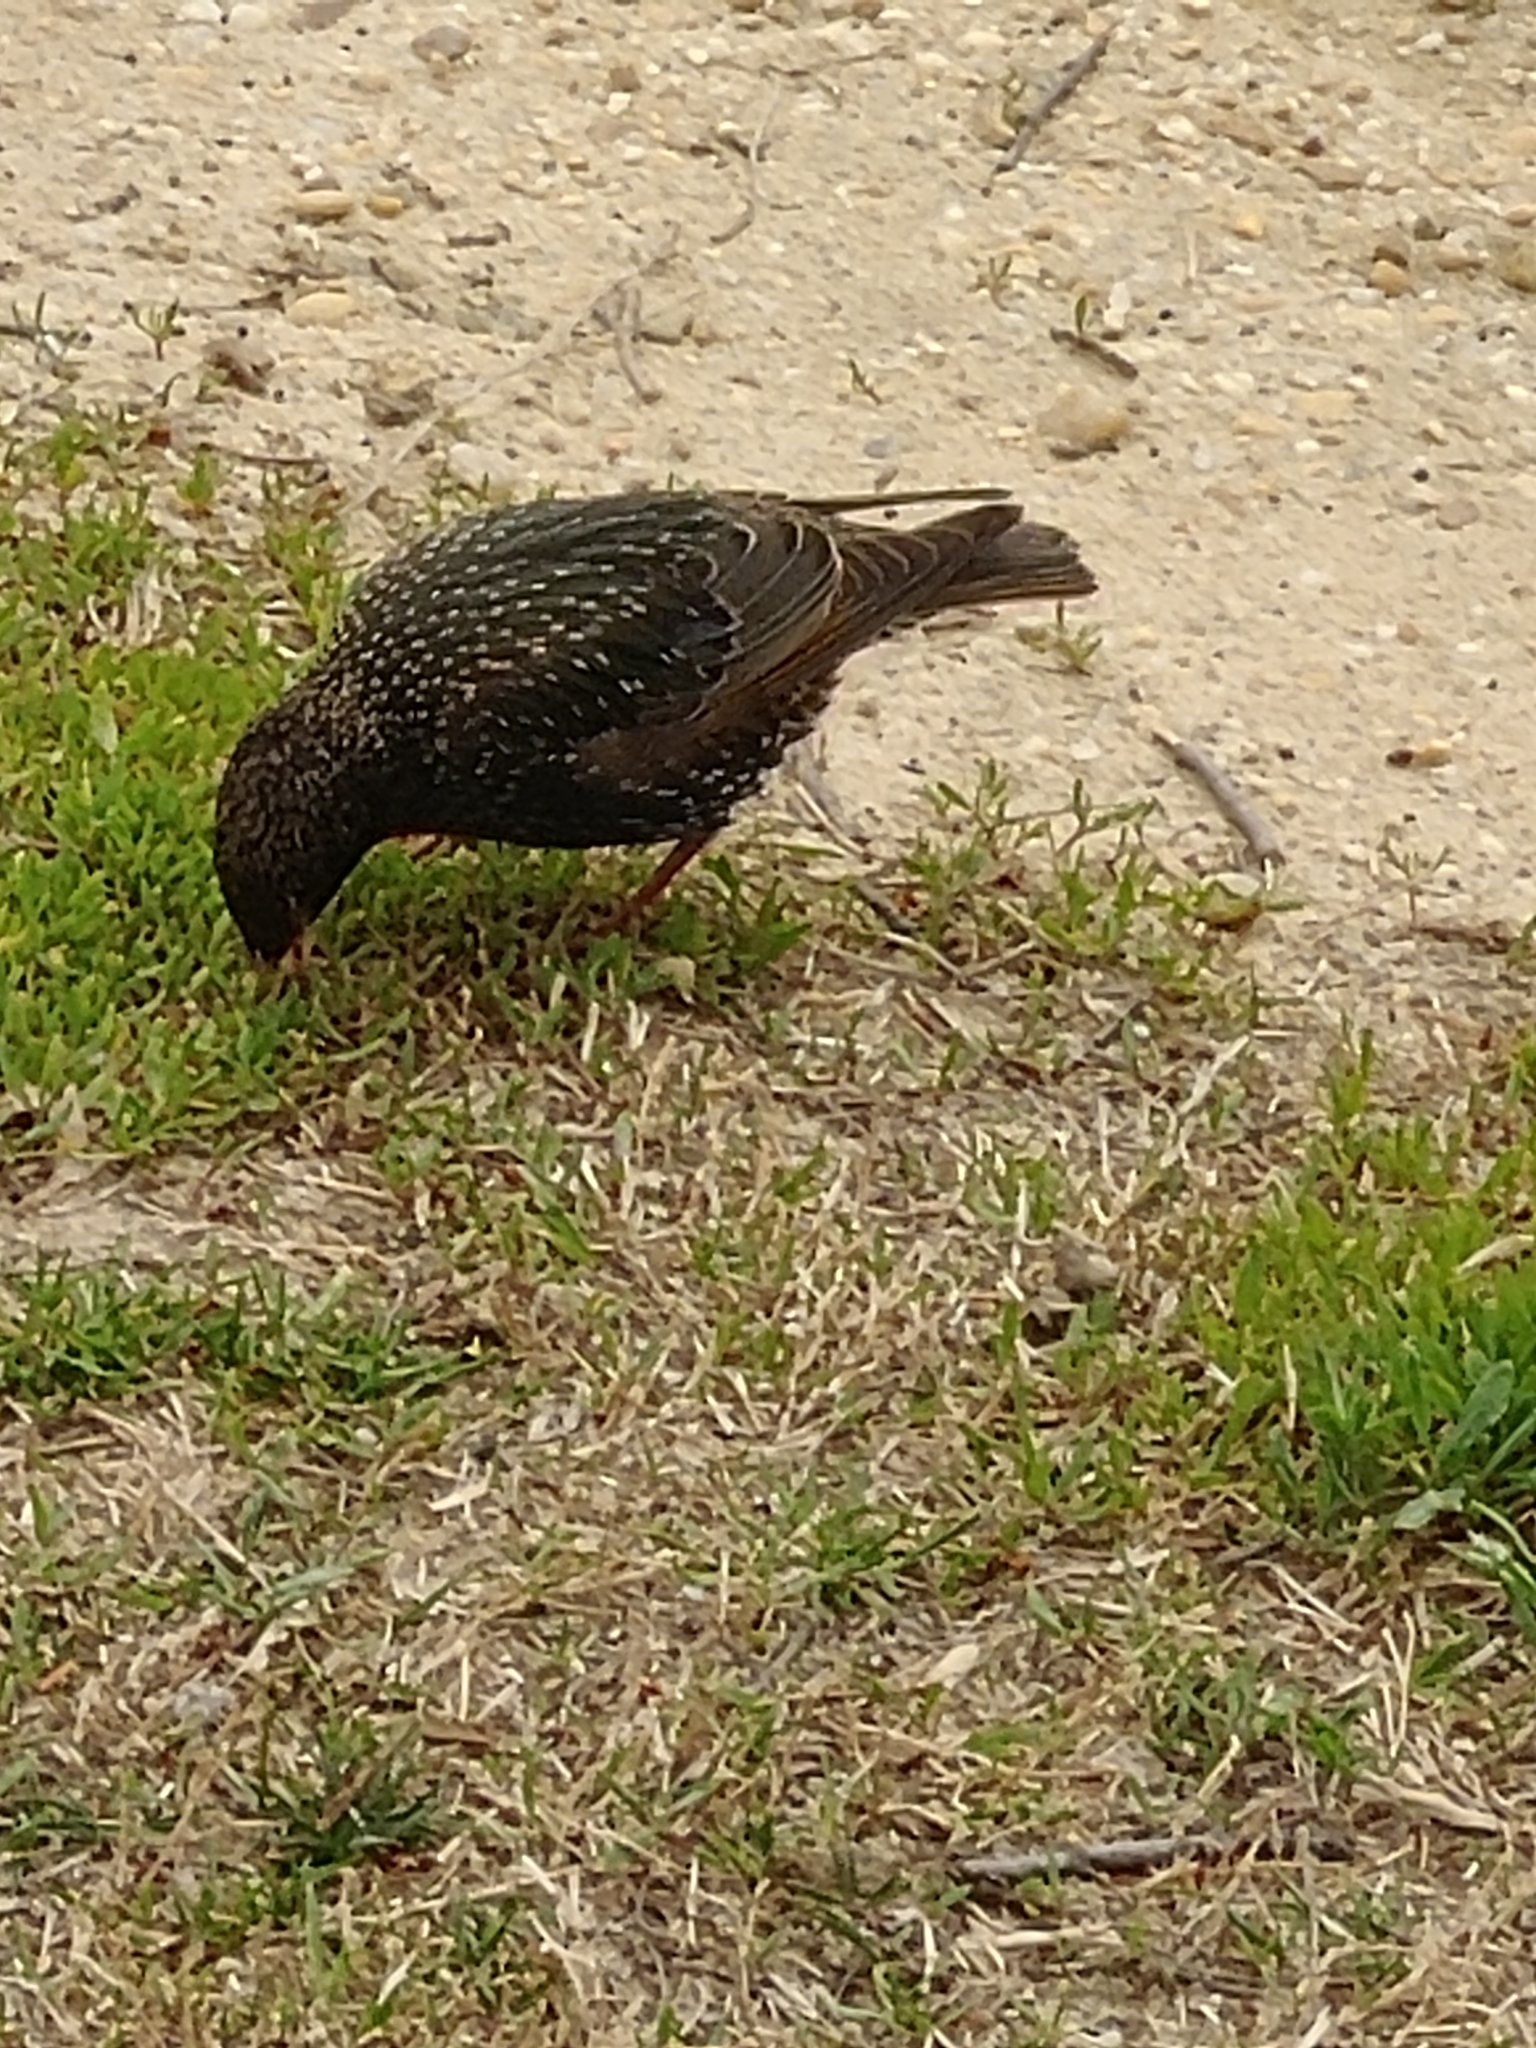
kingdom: Animalia
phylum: Chordata
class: Aves
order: Passeriformes
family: Sturnidae
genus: Sturnus
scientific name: Sturnus vulgaris
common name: Common starling
